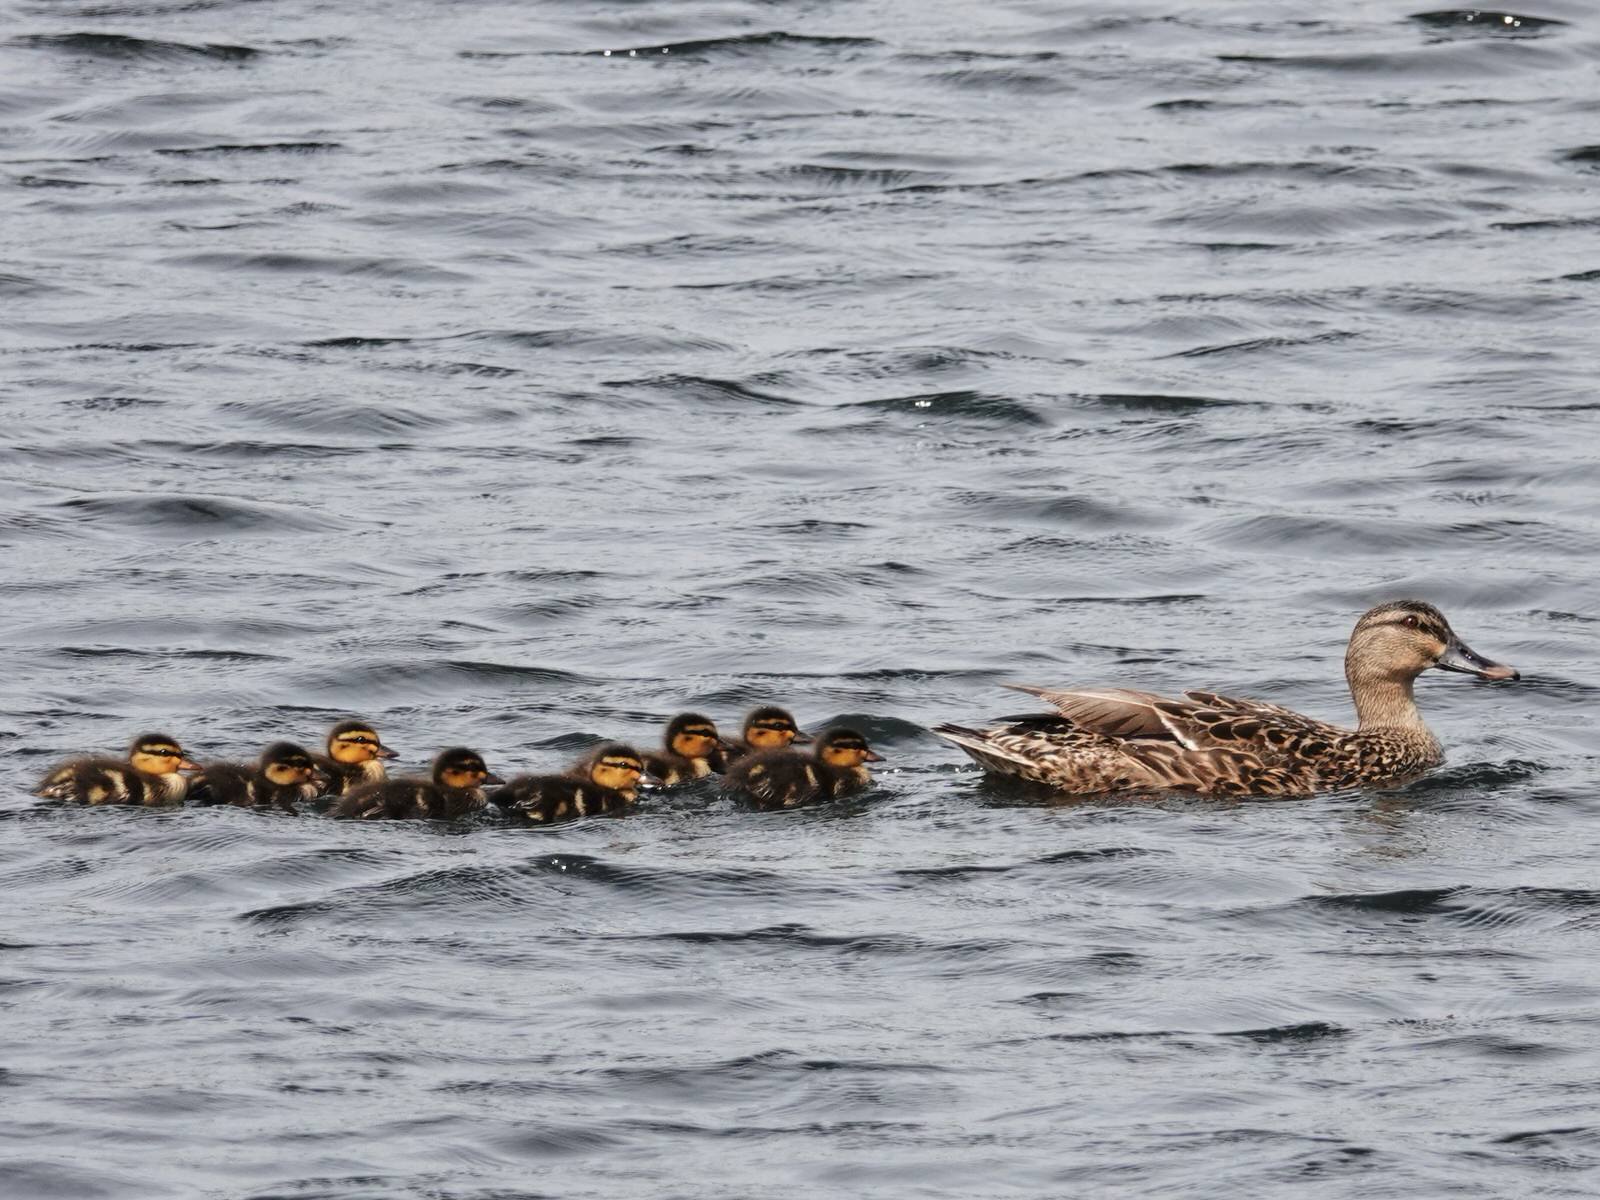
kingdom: Animalia
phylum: Chordata
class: Aves
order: Anseriformes
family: Anatidae
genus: Anas
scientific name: Anas
